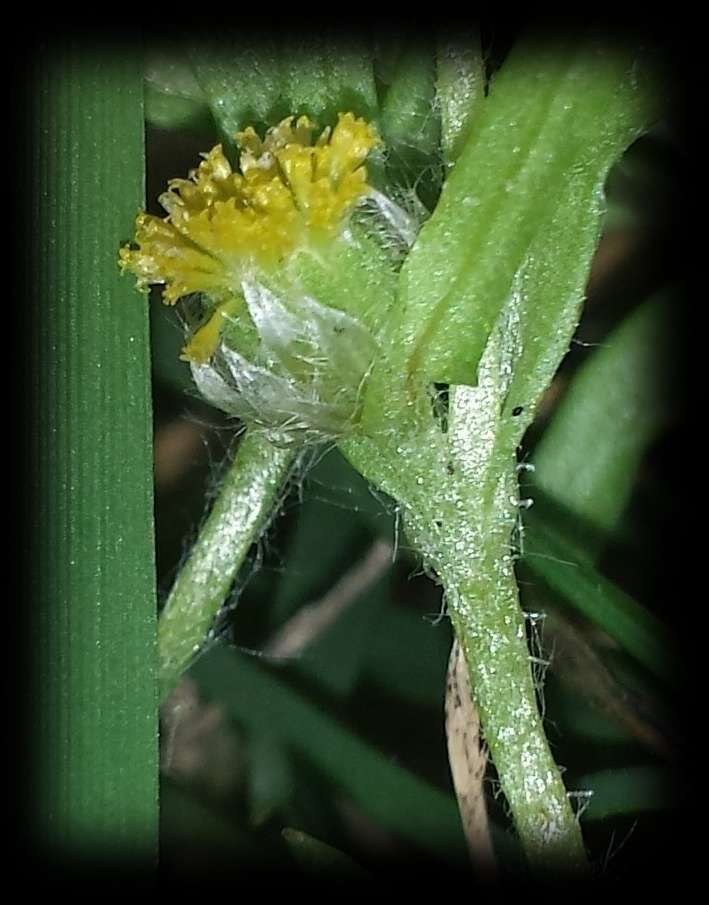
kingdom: Plantae
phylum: Tracheophyta
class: Magnoliopsida
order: Asterales
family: Asteraceae
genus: Triptilodiscus
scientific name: Triptilodiscus pygmaeus
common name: Common sunray
